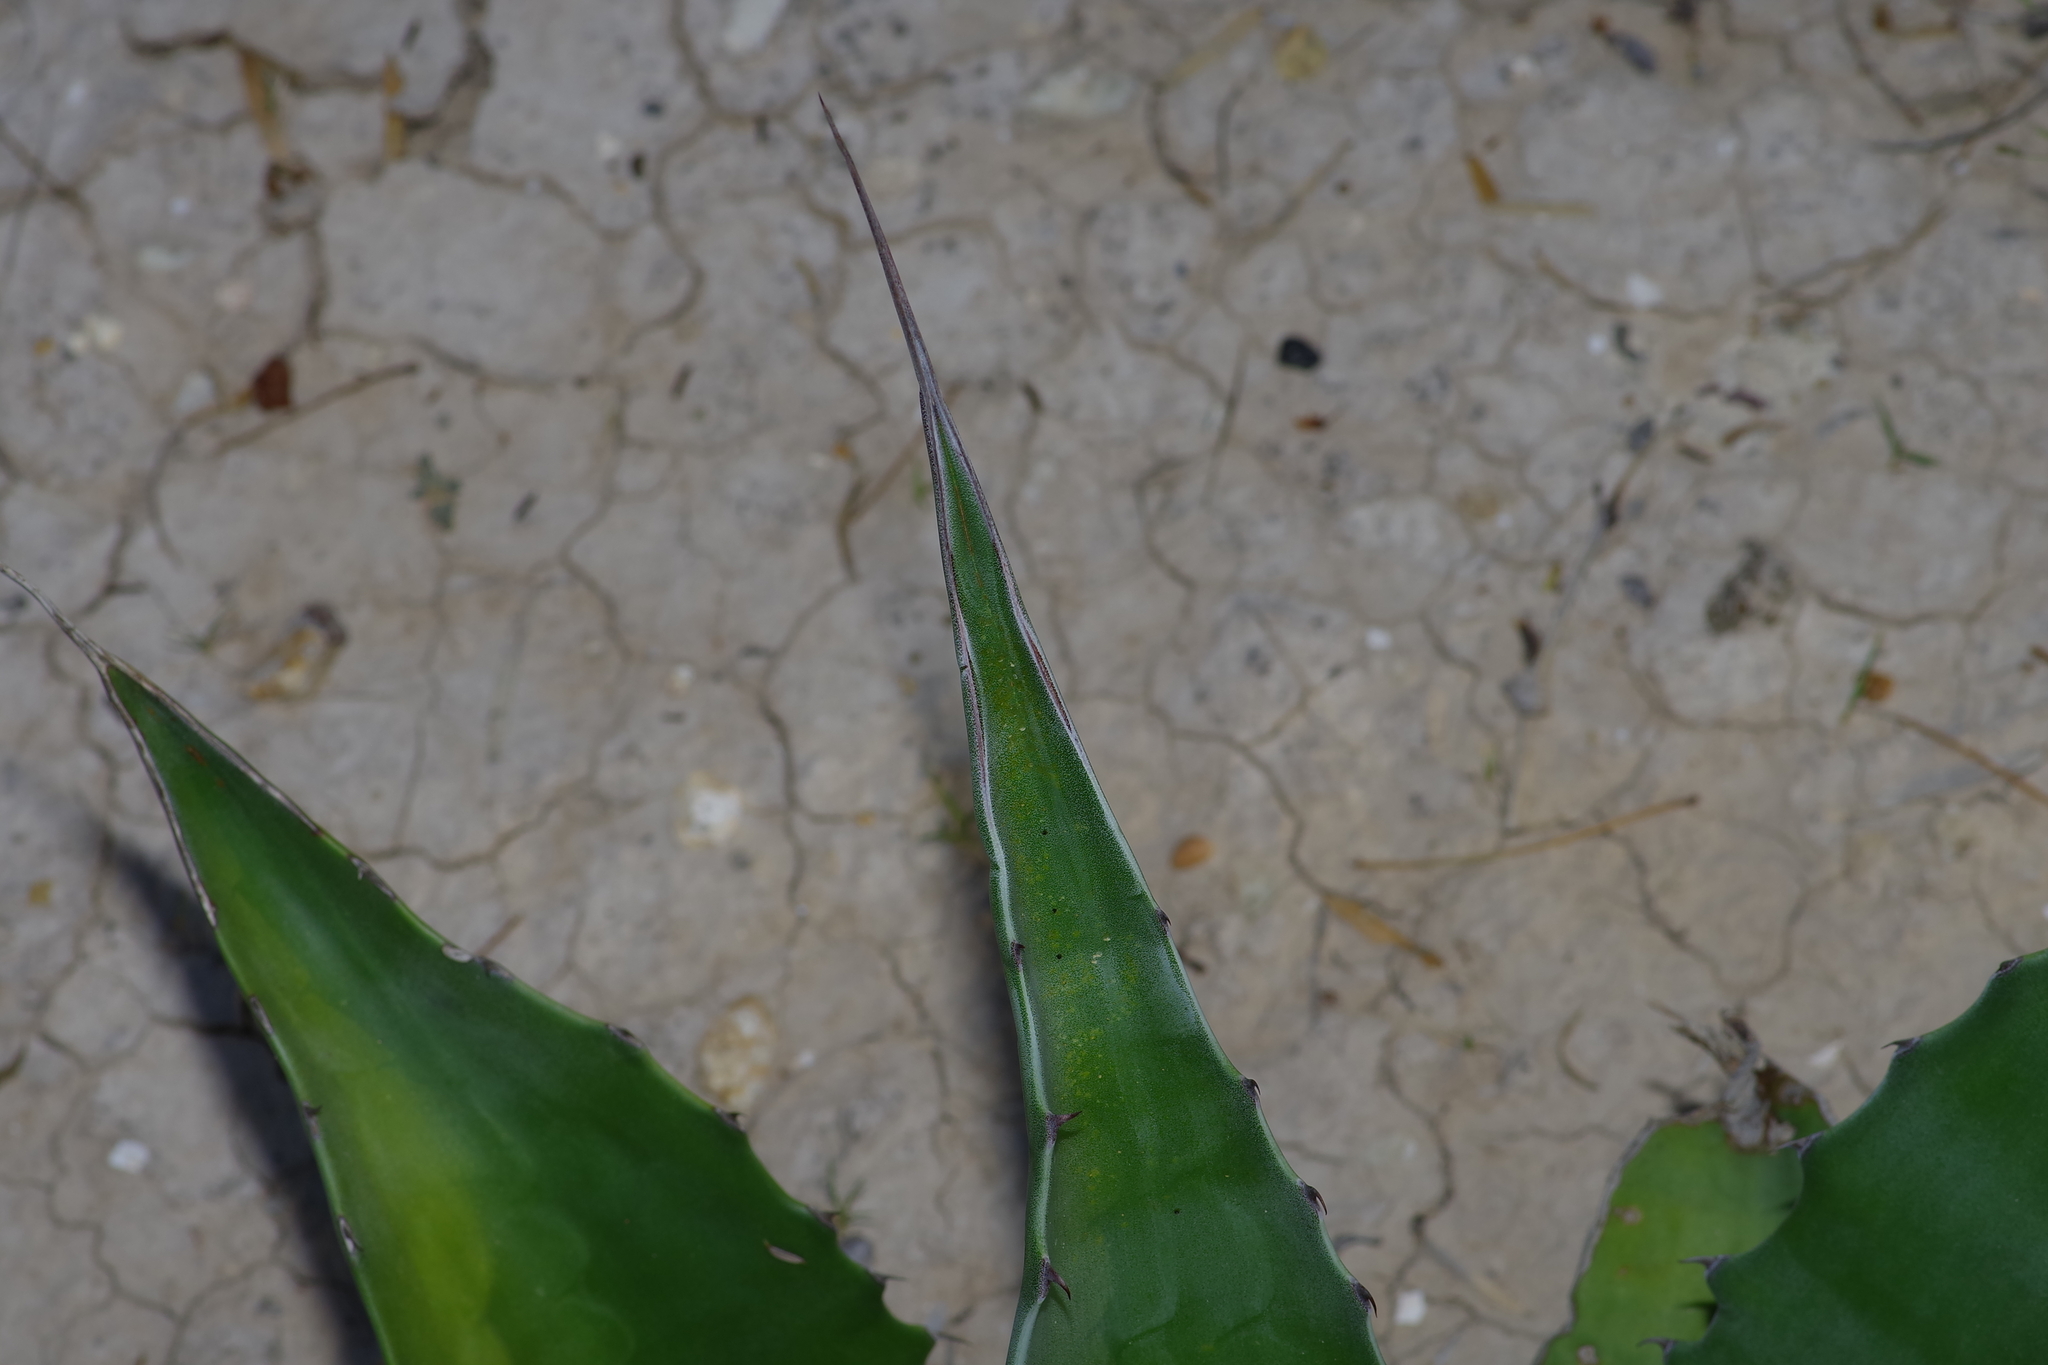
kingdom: Plantae
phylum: Tracheophyta
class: Liliopsida
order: Asparagales
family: Asparagaceae
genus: Agave
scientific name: Agave univittata
